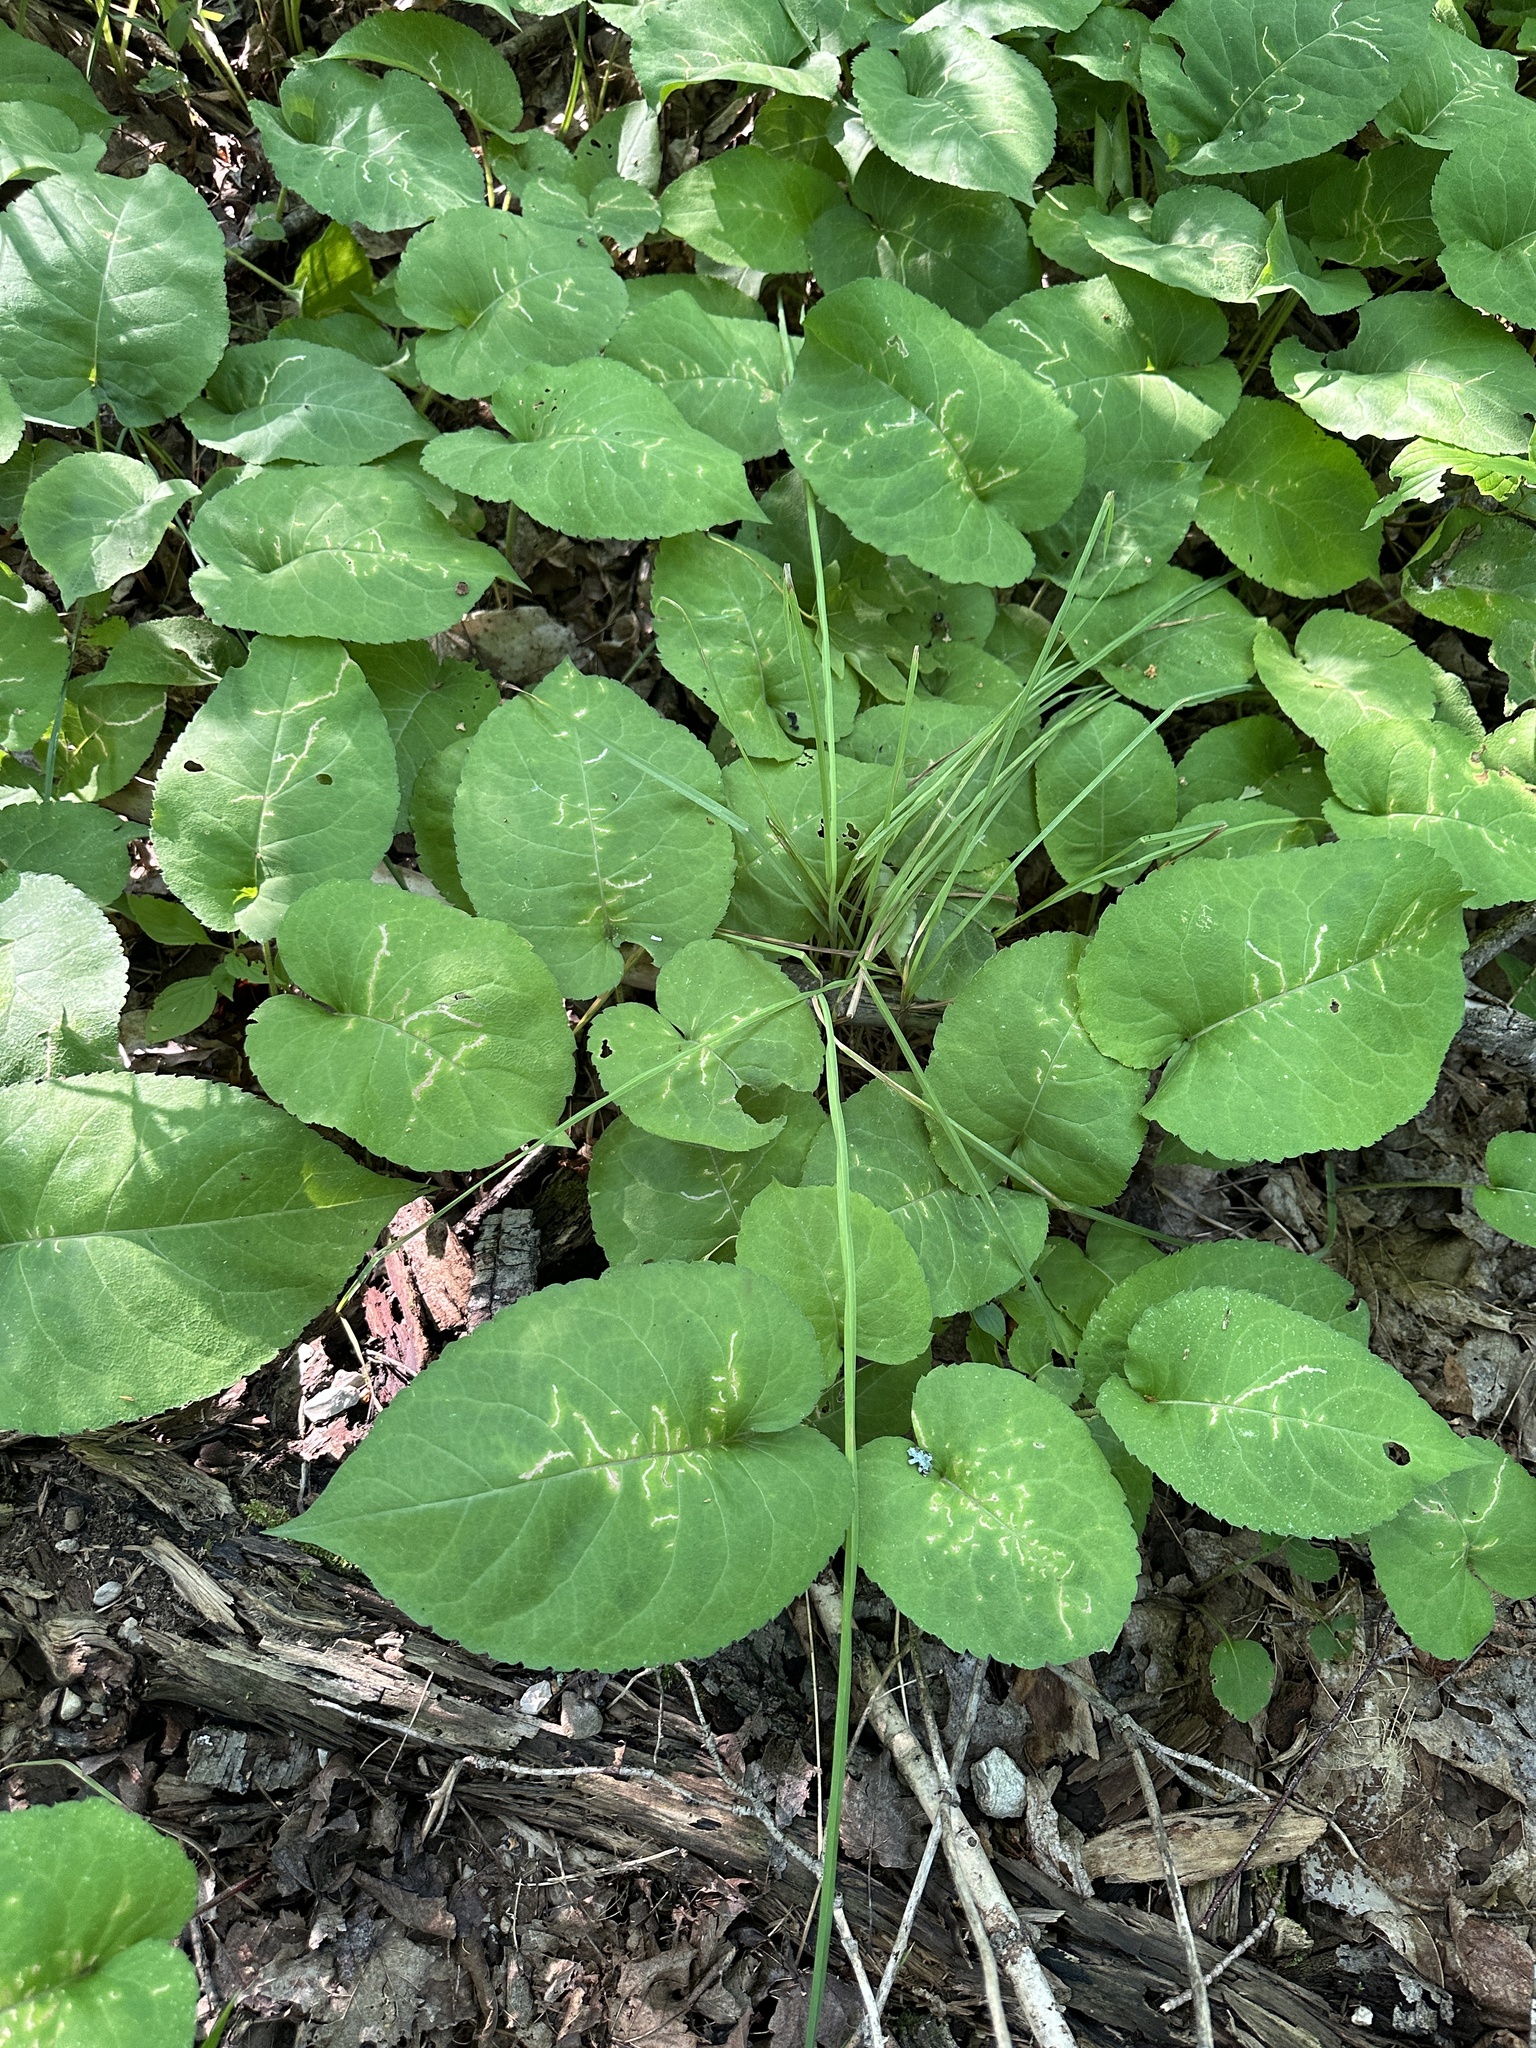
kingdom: Plantae
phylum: Tracheophyta
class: Magnoliopsida
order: Asterales
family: Asteraceae
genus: Eurybia
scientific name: Eurybia macrophylla
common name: Big-leaved aster
